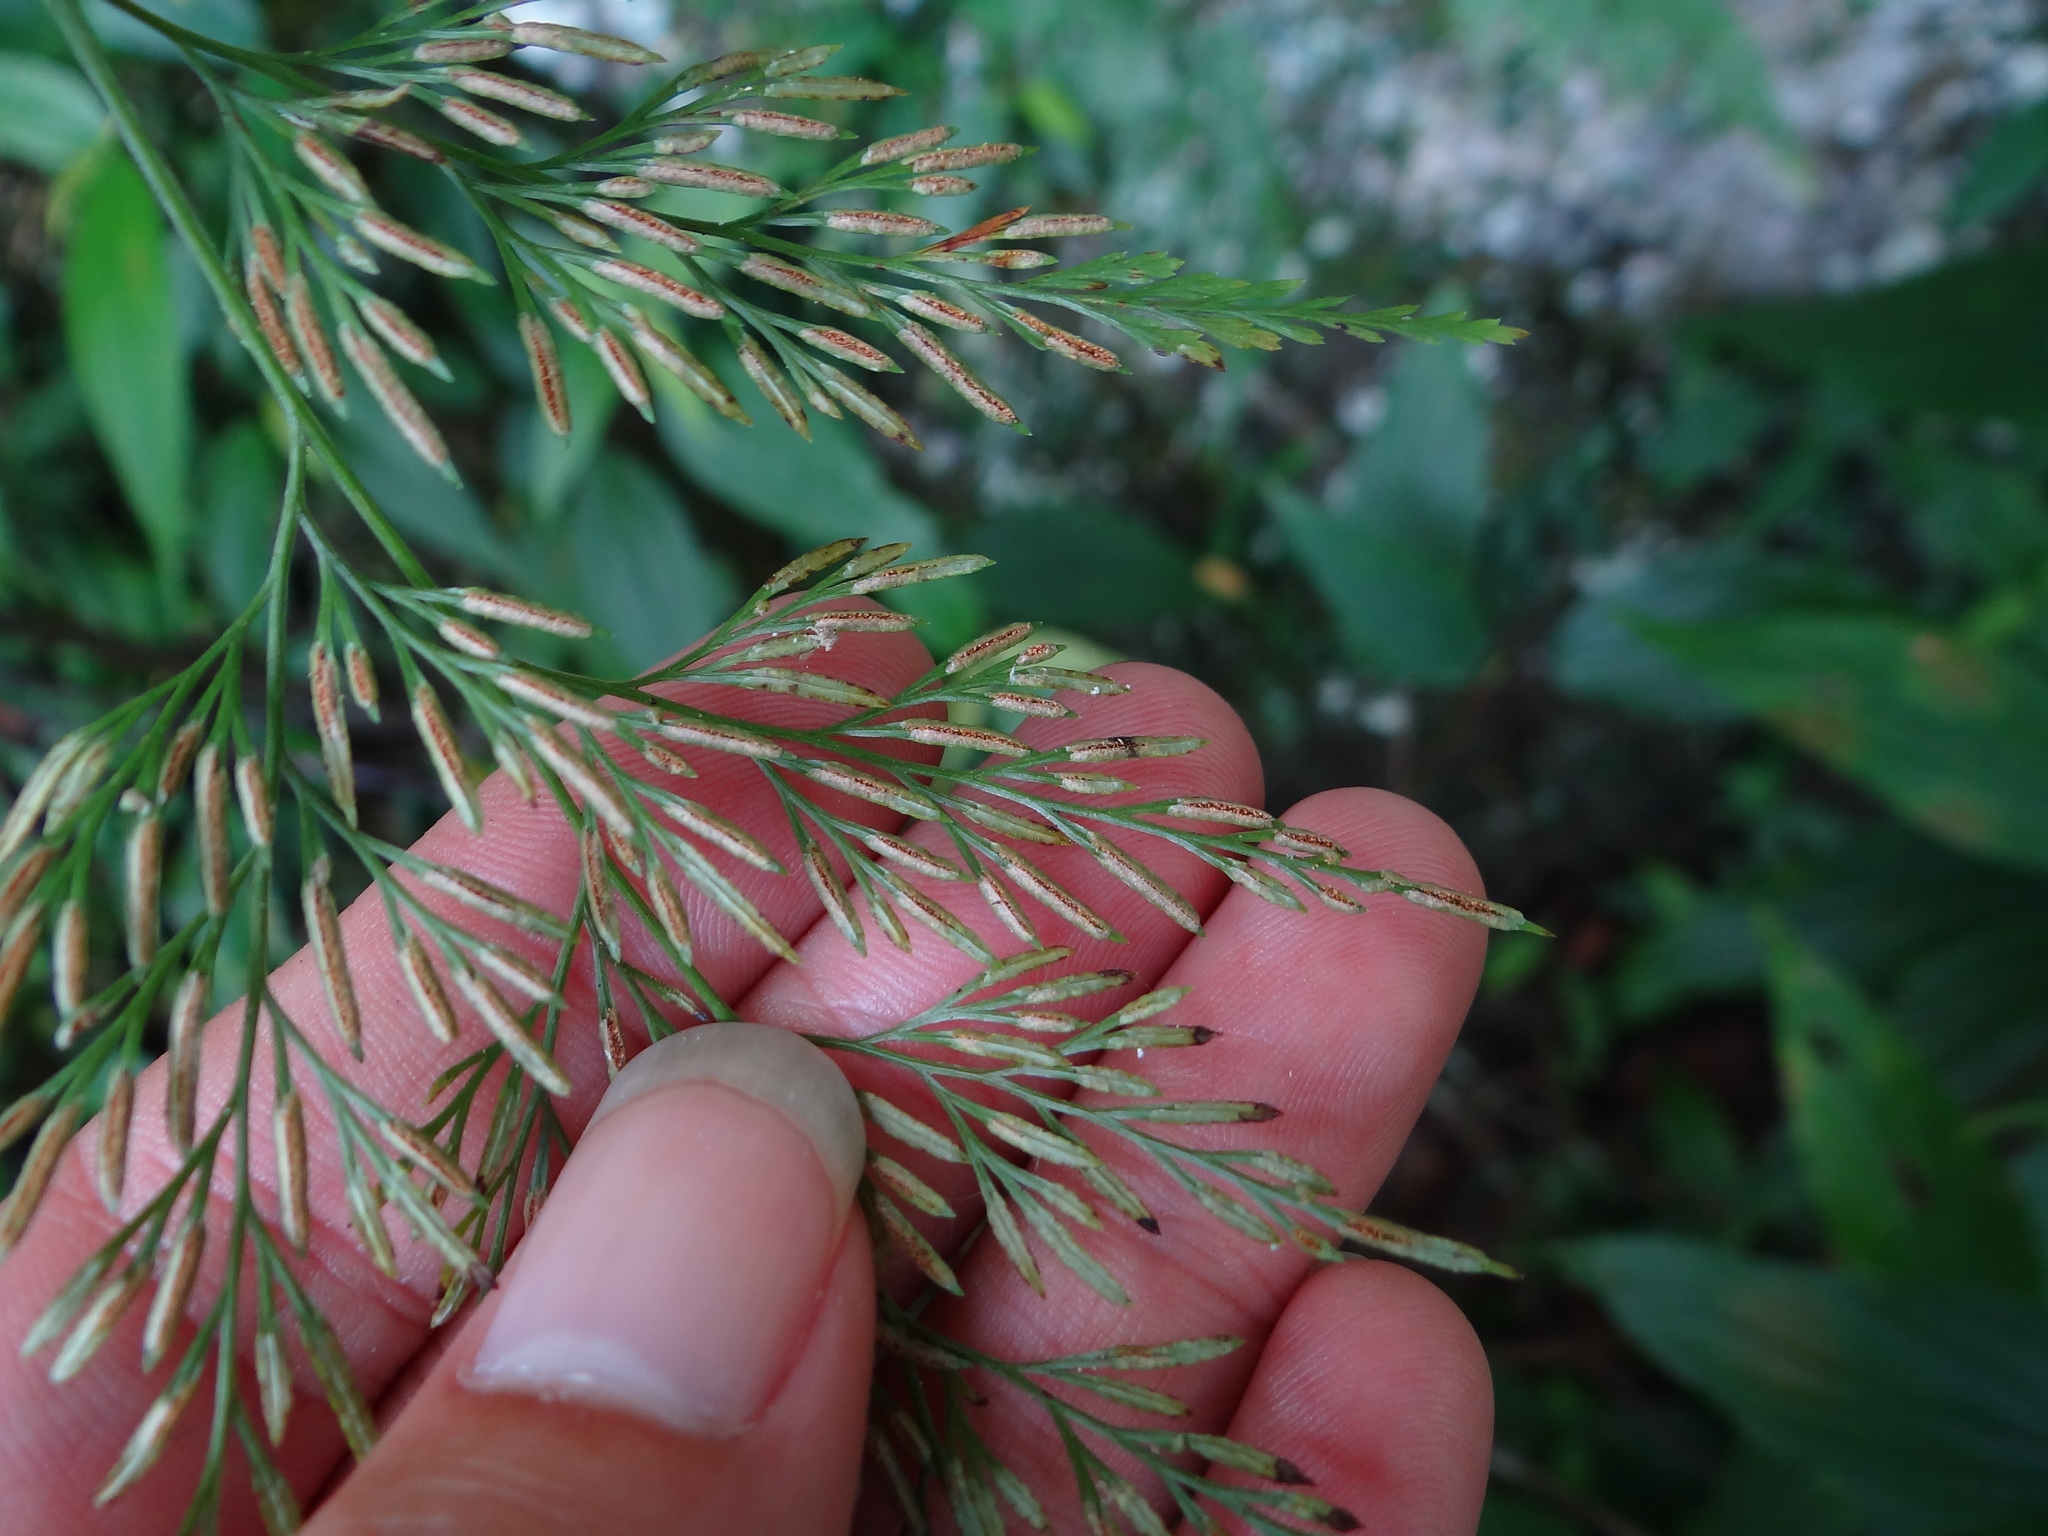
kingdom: Plantae
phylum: Tracheophyta
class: Polypodiopsida
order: Polypodiales
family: Pteridaceae
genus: Onychium
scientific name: Onychium japonicum
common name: Carrot fern
